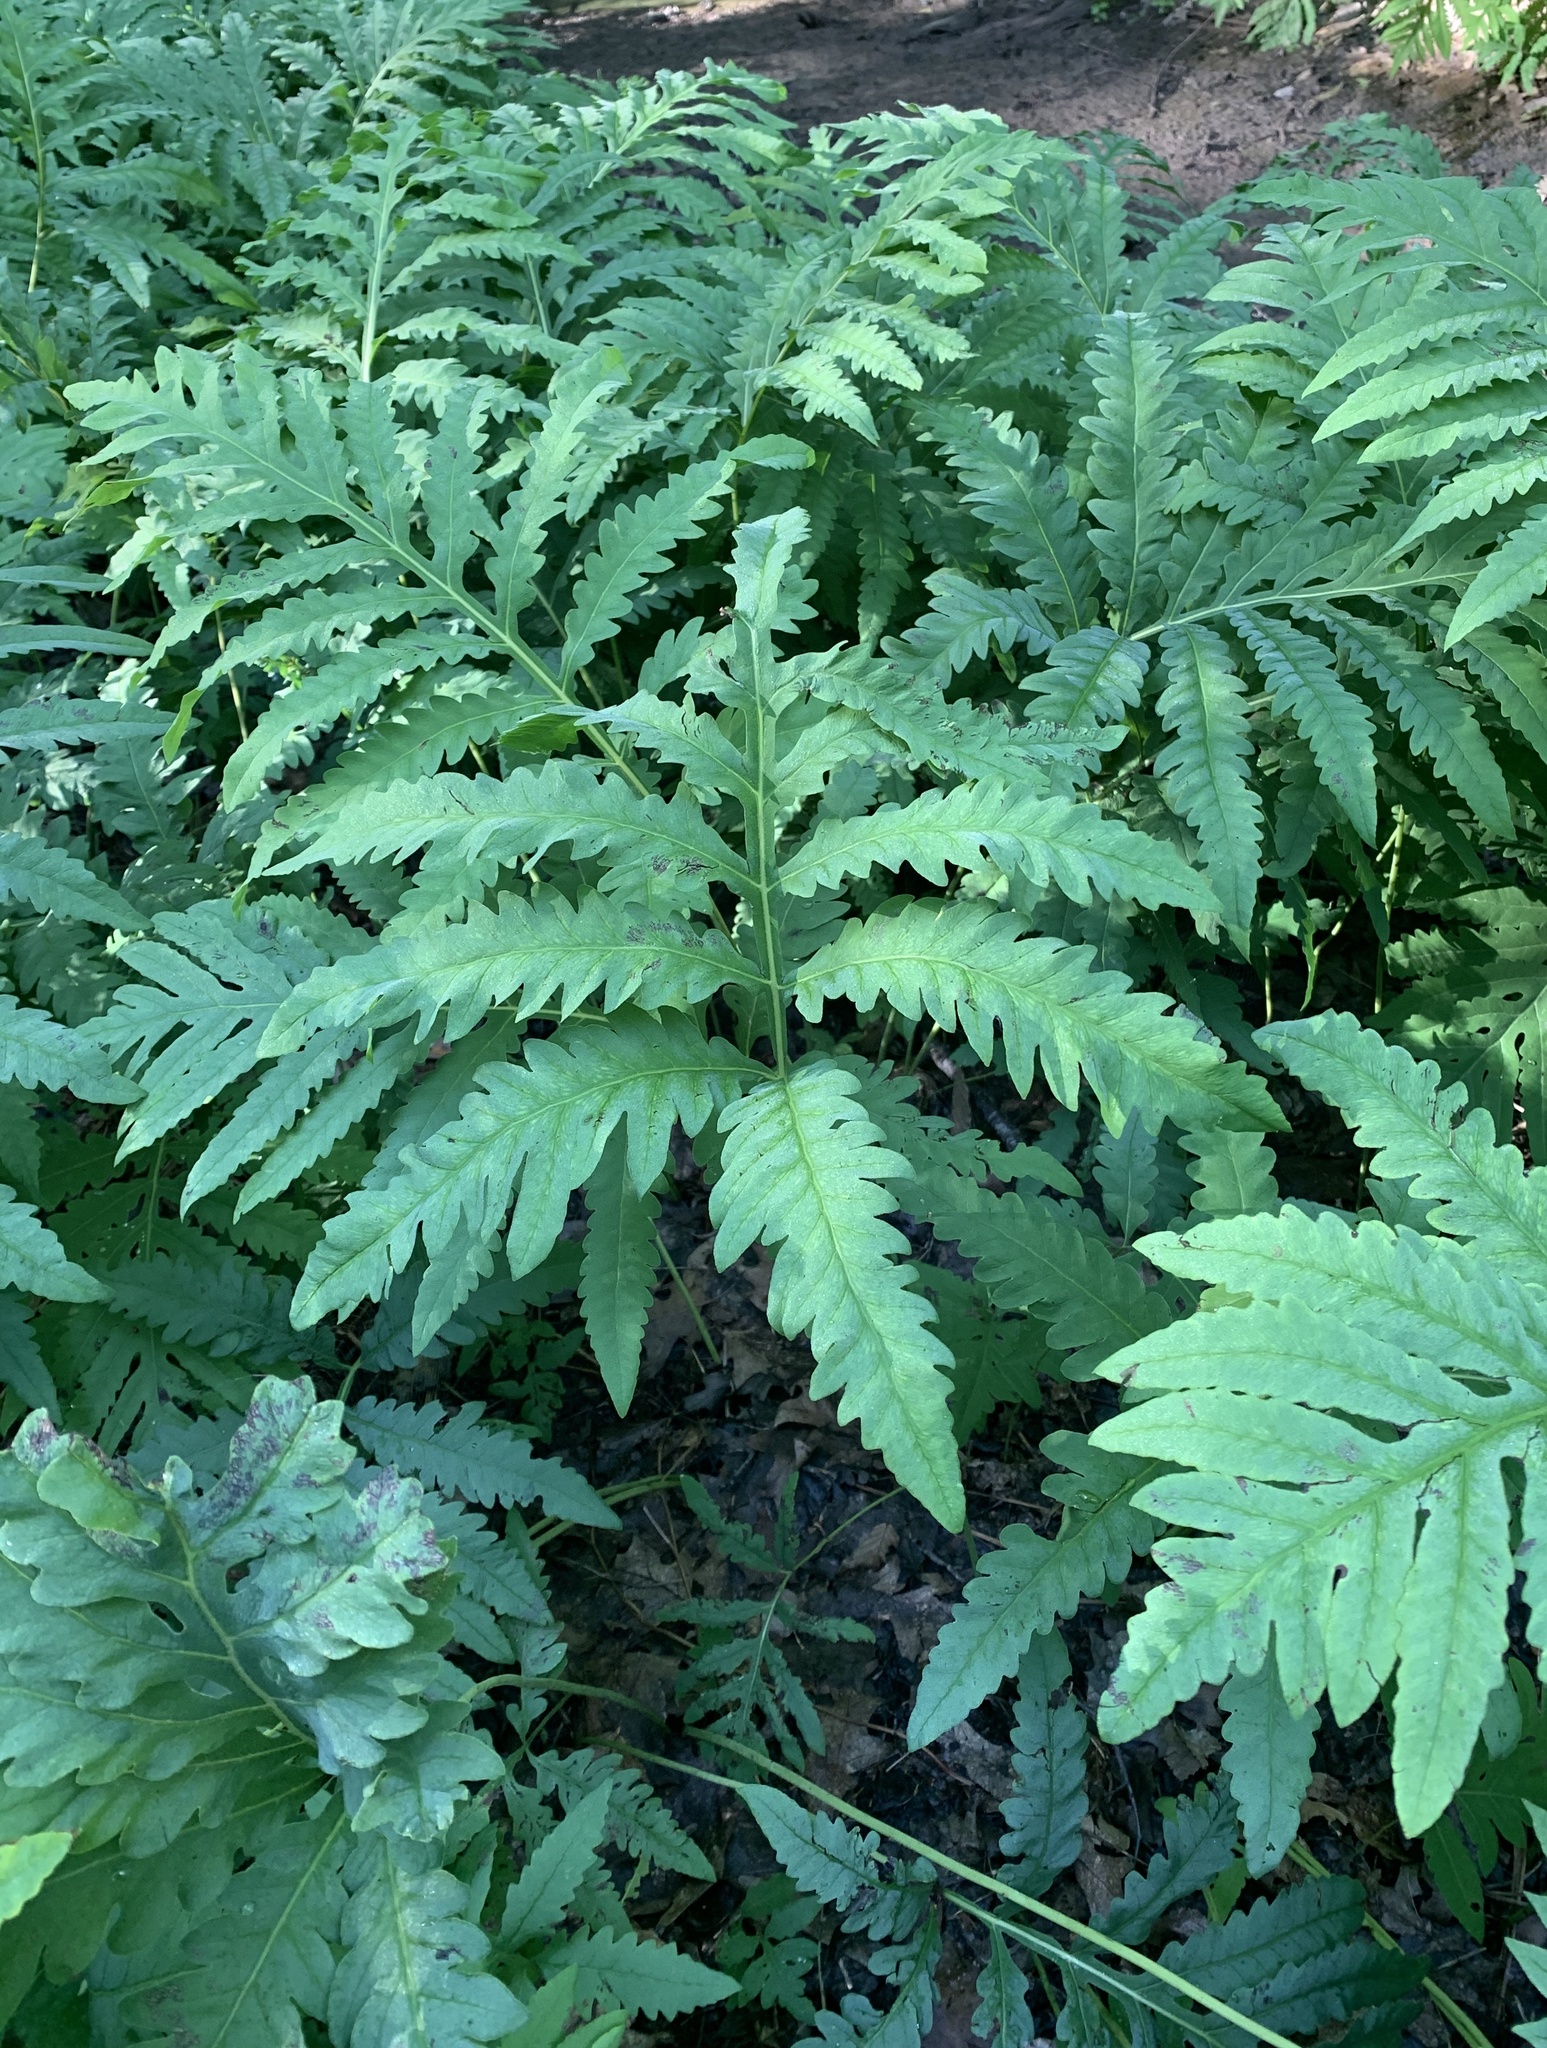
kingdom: Plantae
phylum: Tracheophyta
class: Polypodiopsida
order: Polypodiales
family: Onocleaceae
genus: Onoclea
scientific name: Onoclea sensibilis
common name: Sensitive fern
